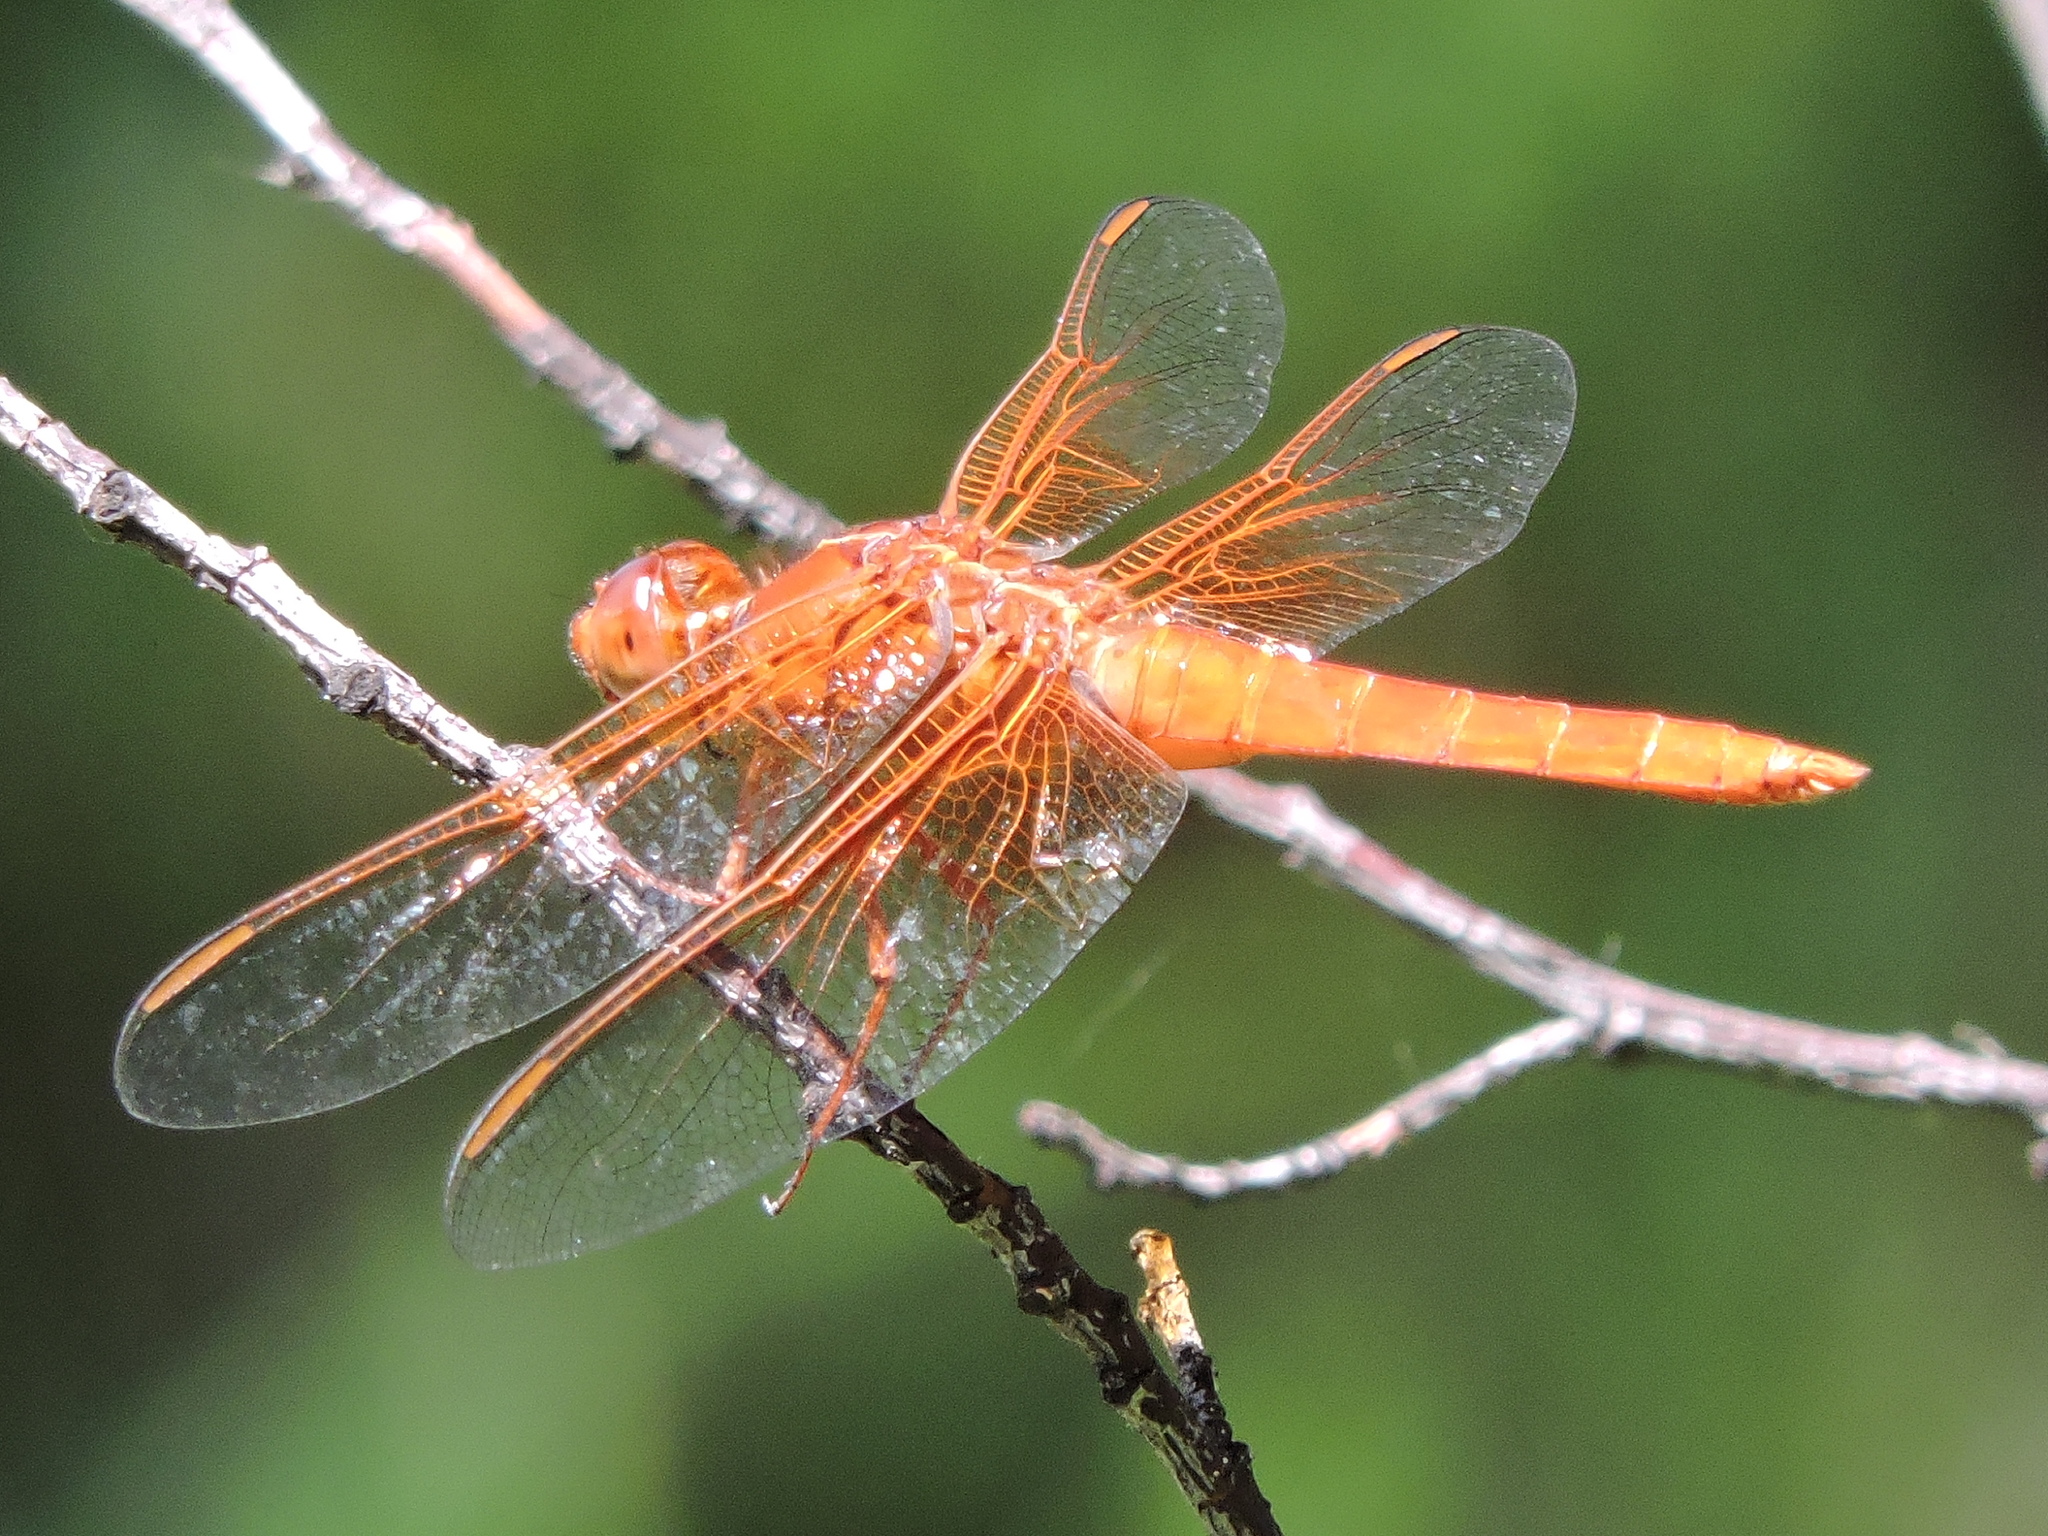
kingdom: Animalia
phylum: Arthropoda
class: Insecta
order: Odonata
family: Libellulidae
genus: Libellula
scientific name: Libellula croceipennis
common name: Neon skimmer
